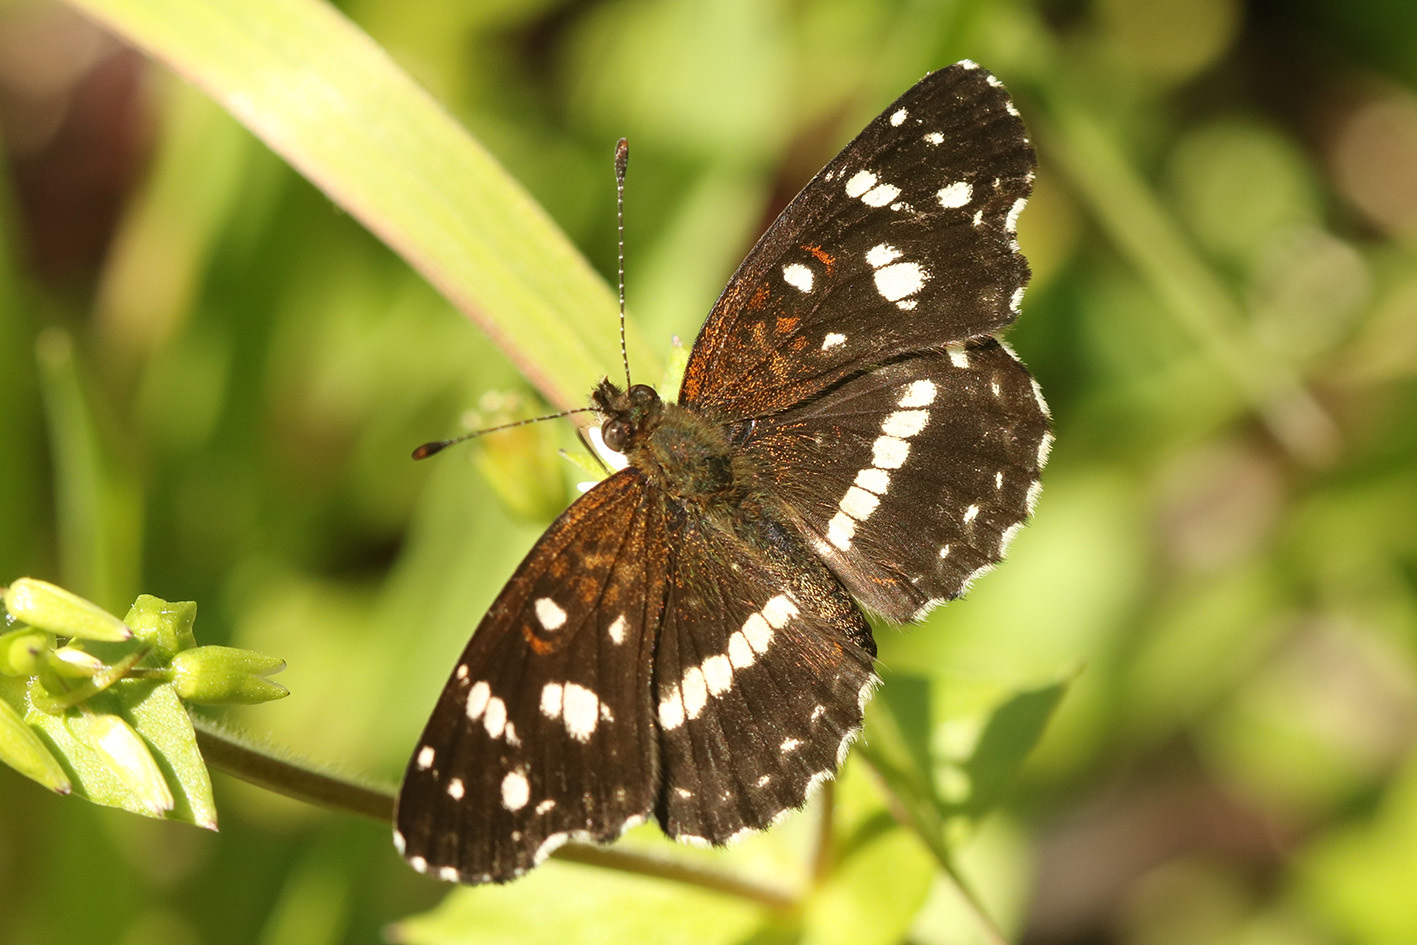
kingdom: Animalia
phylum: Arthropoda
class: Insecta
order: Lepidoptera
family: Nymphalidae
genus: Ortilia
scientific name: Ortilia ithra
